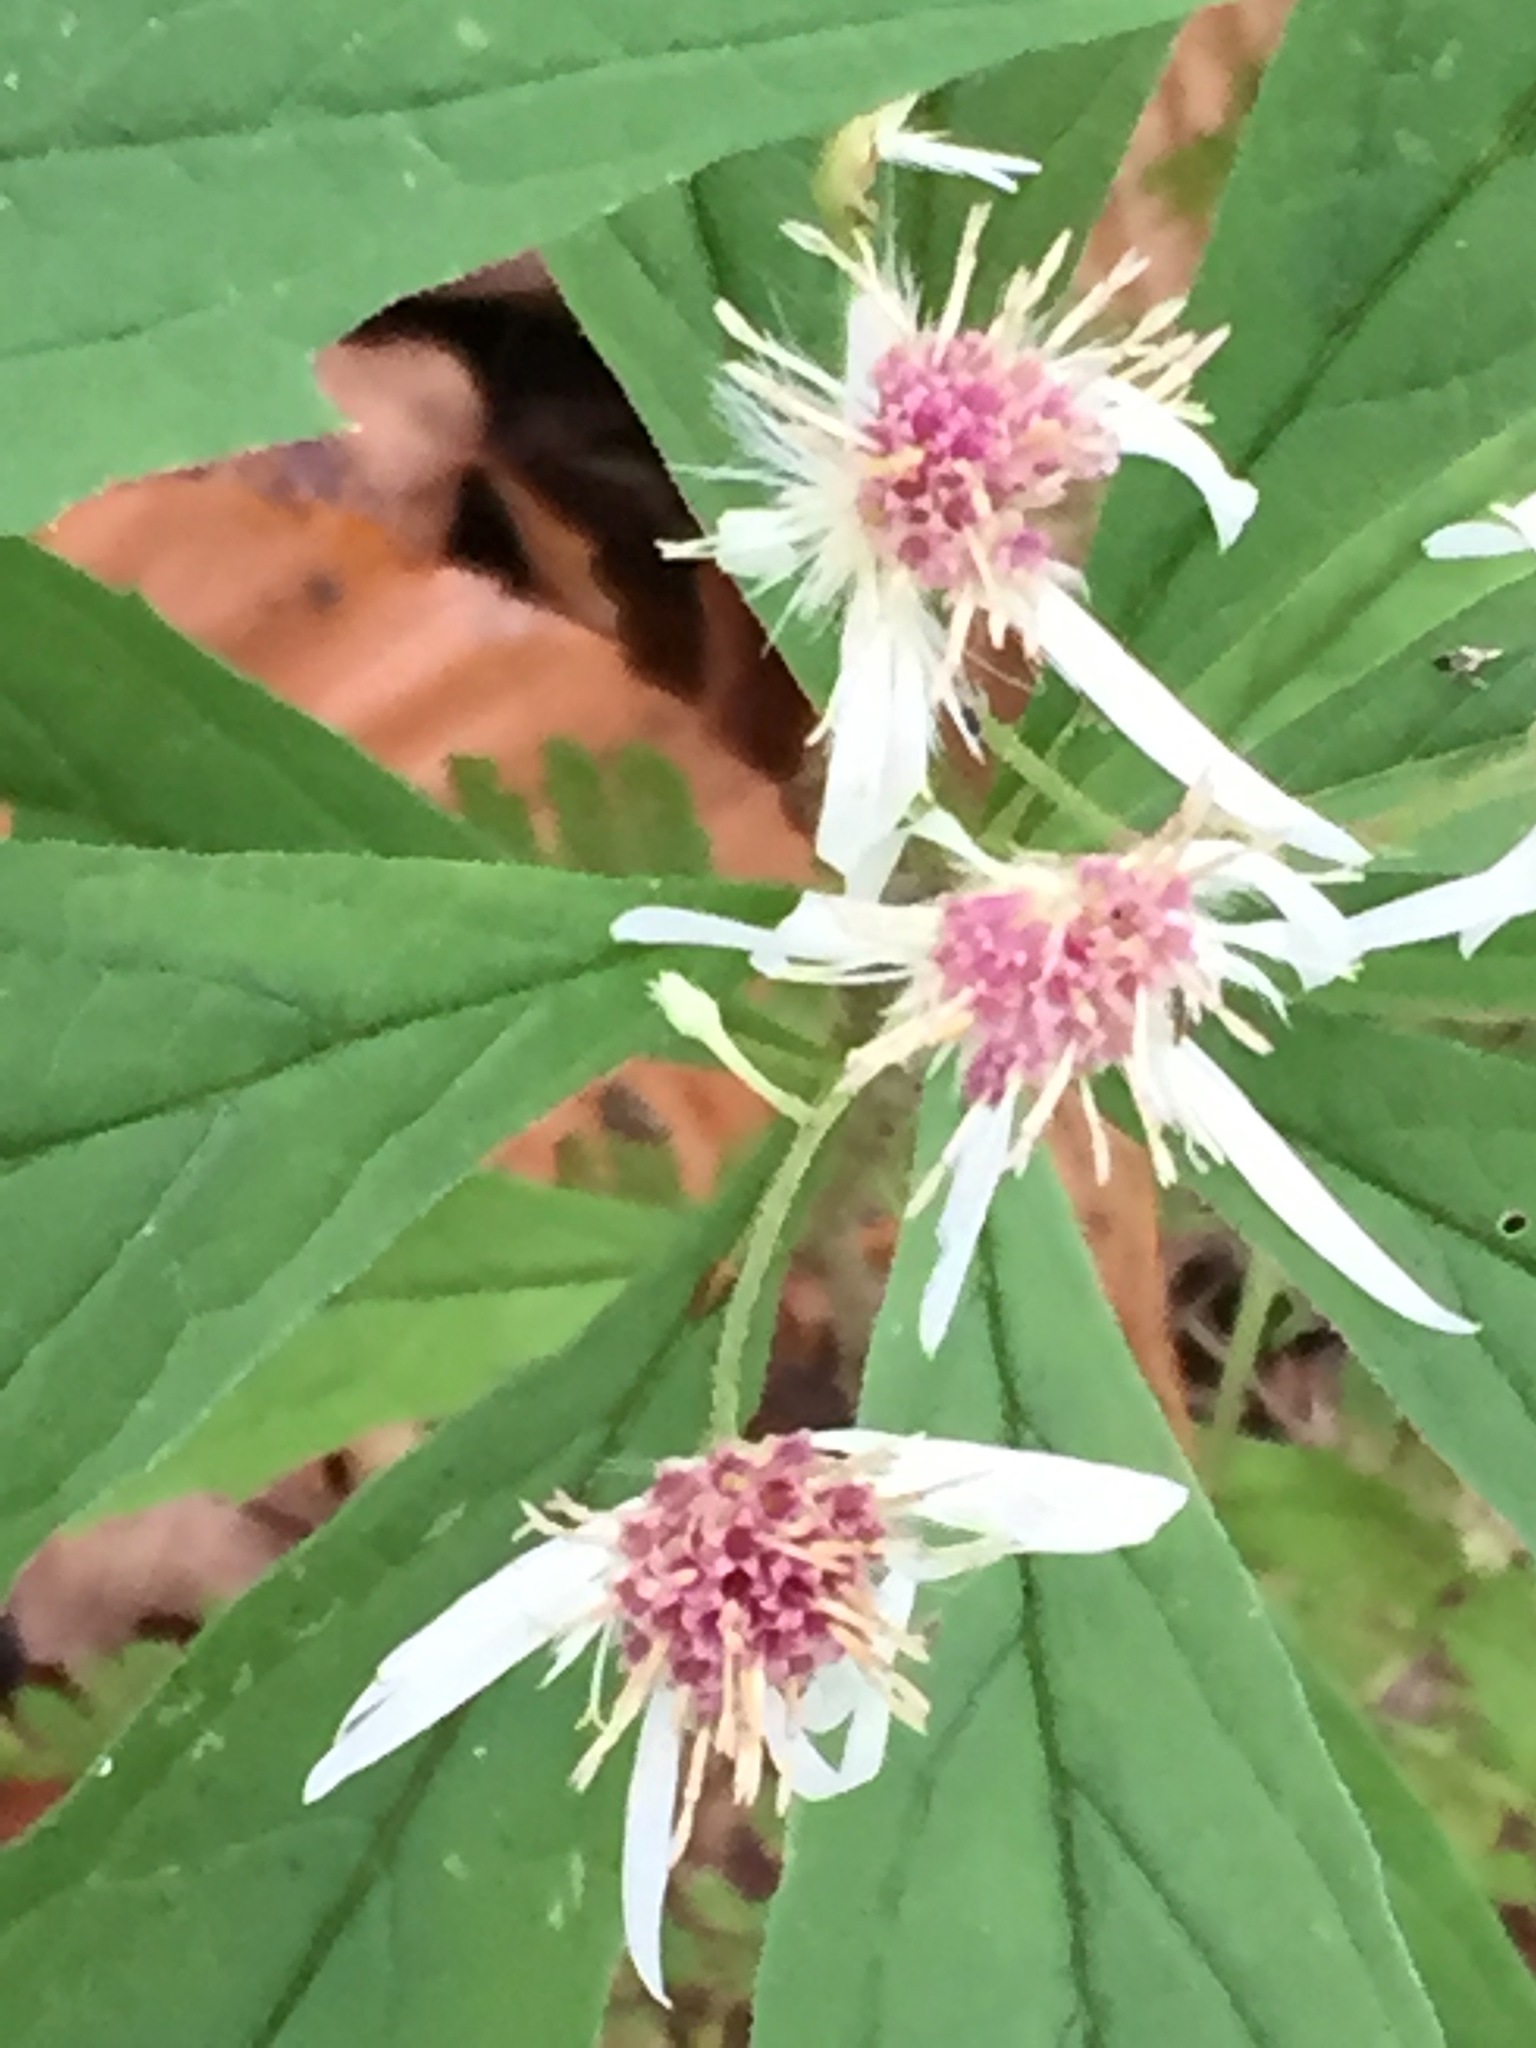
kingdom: Plantae
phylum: Tracheophyta
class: Magnoliopsida
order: Asterales
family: Asteraceae
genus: Oclemena
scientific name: Oclemena acuminata
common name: Mountain aster
